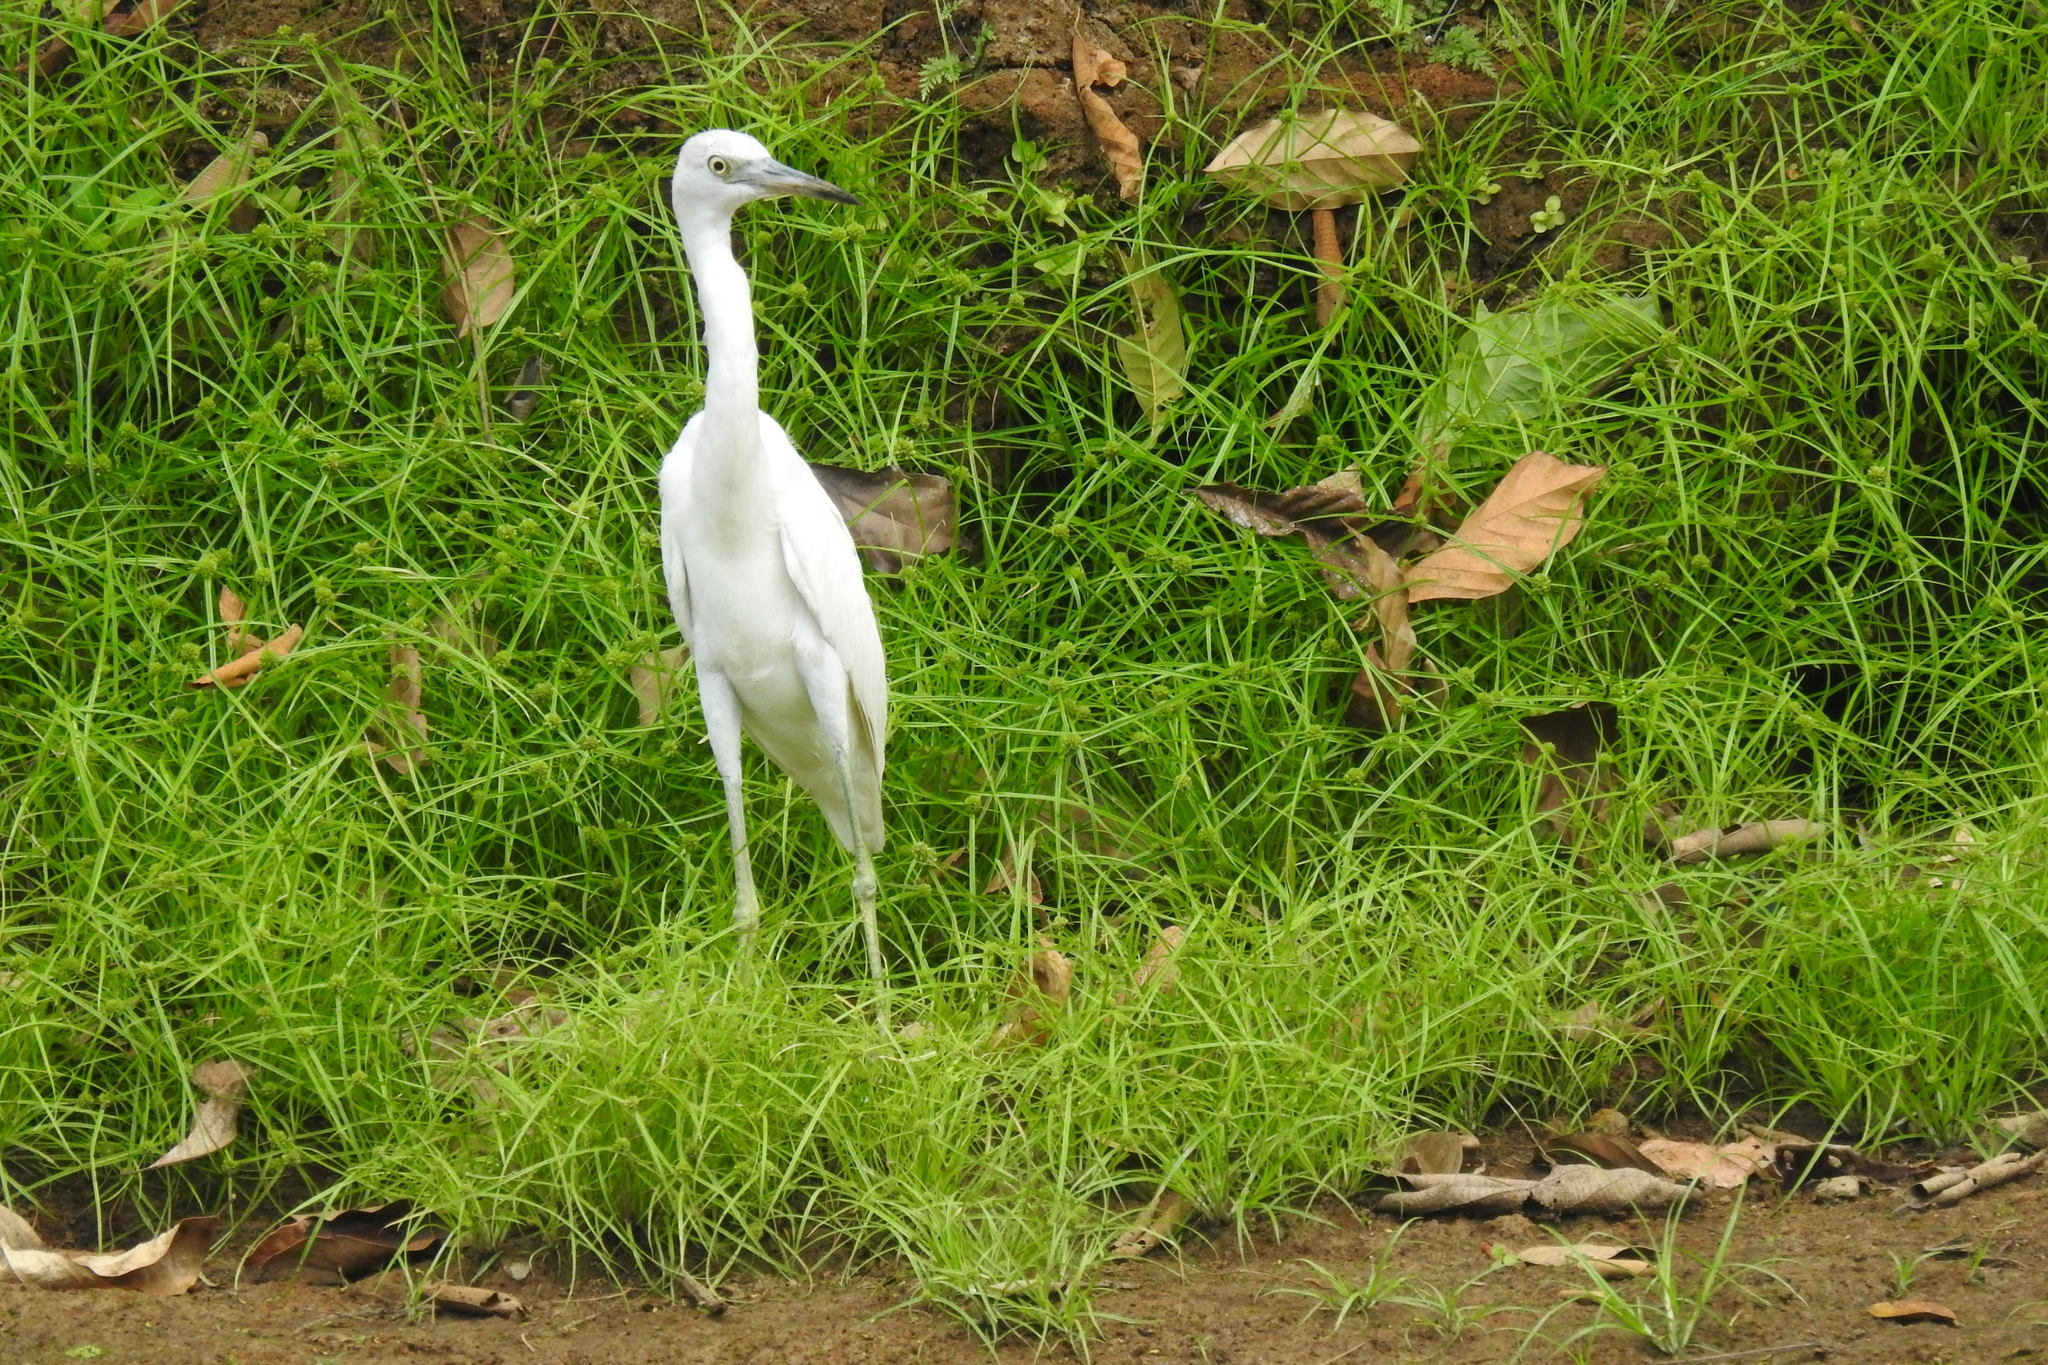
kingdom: Animalia
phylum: Chordata
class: Aves
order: Pelecaniformes
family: Ardeidae
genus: Egretta
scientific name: Egretta caerulea
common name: Little blue heron
